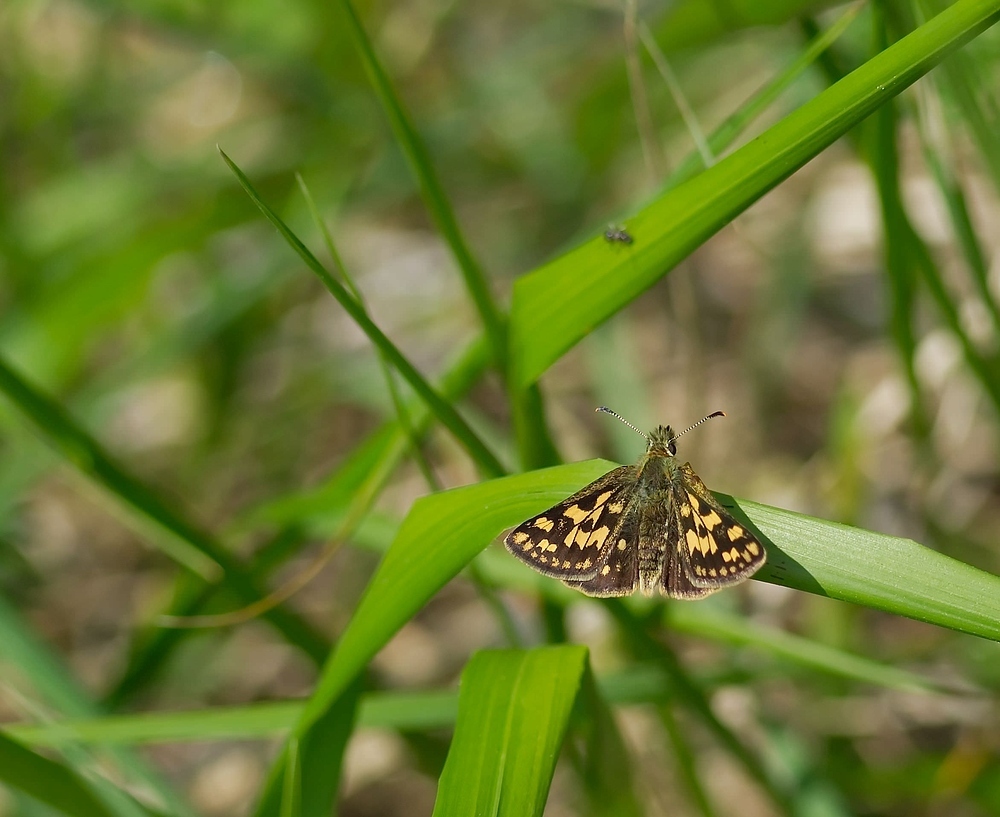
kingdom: Animalia
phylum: Arthropoda
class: Insecta
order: Lepidoptera
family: Hesperiidae
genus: Carterocephalus
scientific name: Carterocephalus palaemon
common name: Chequered skipper
